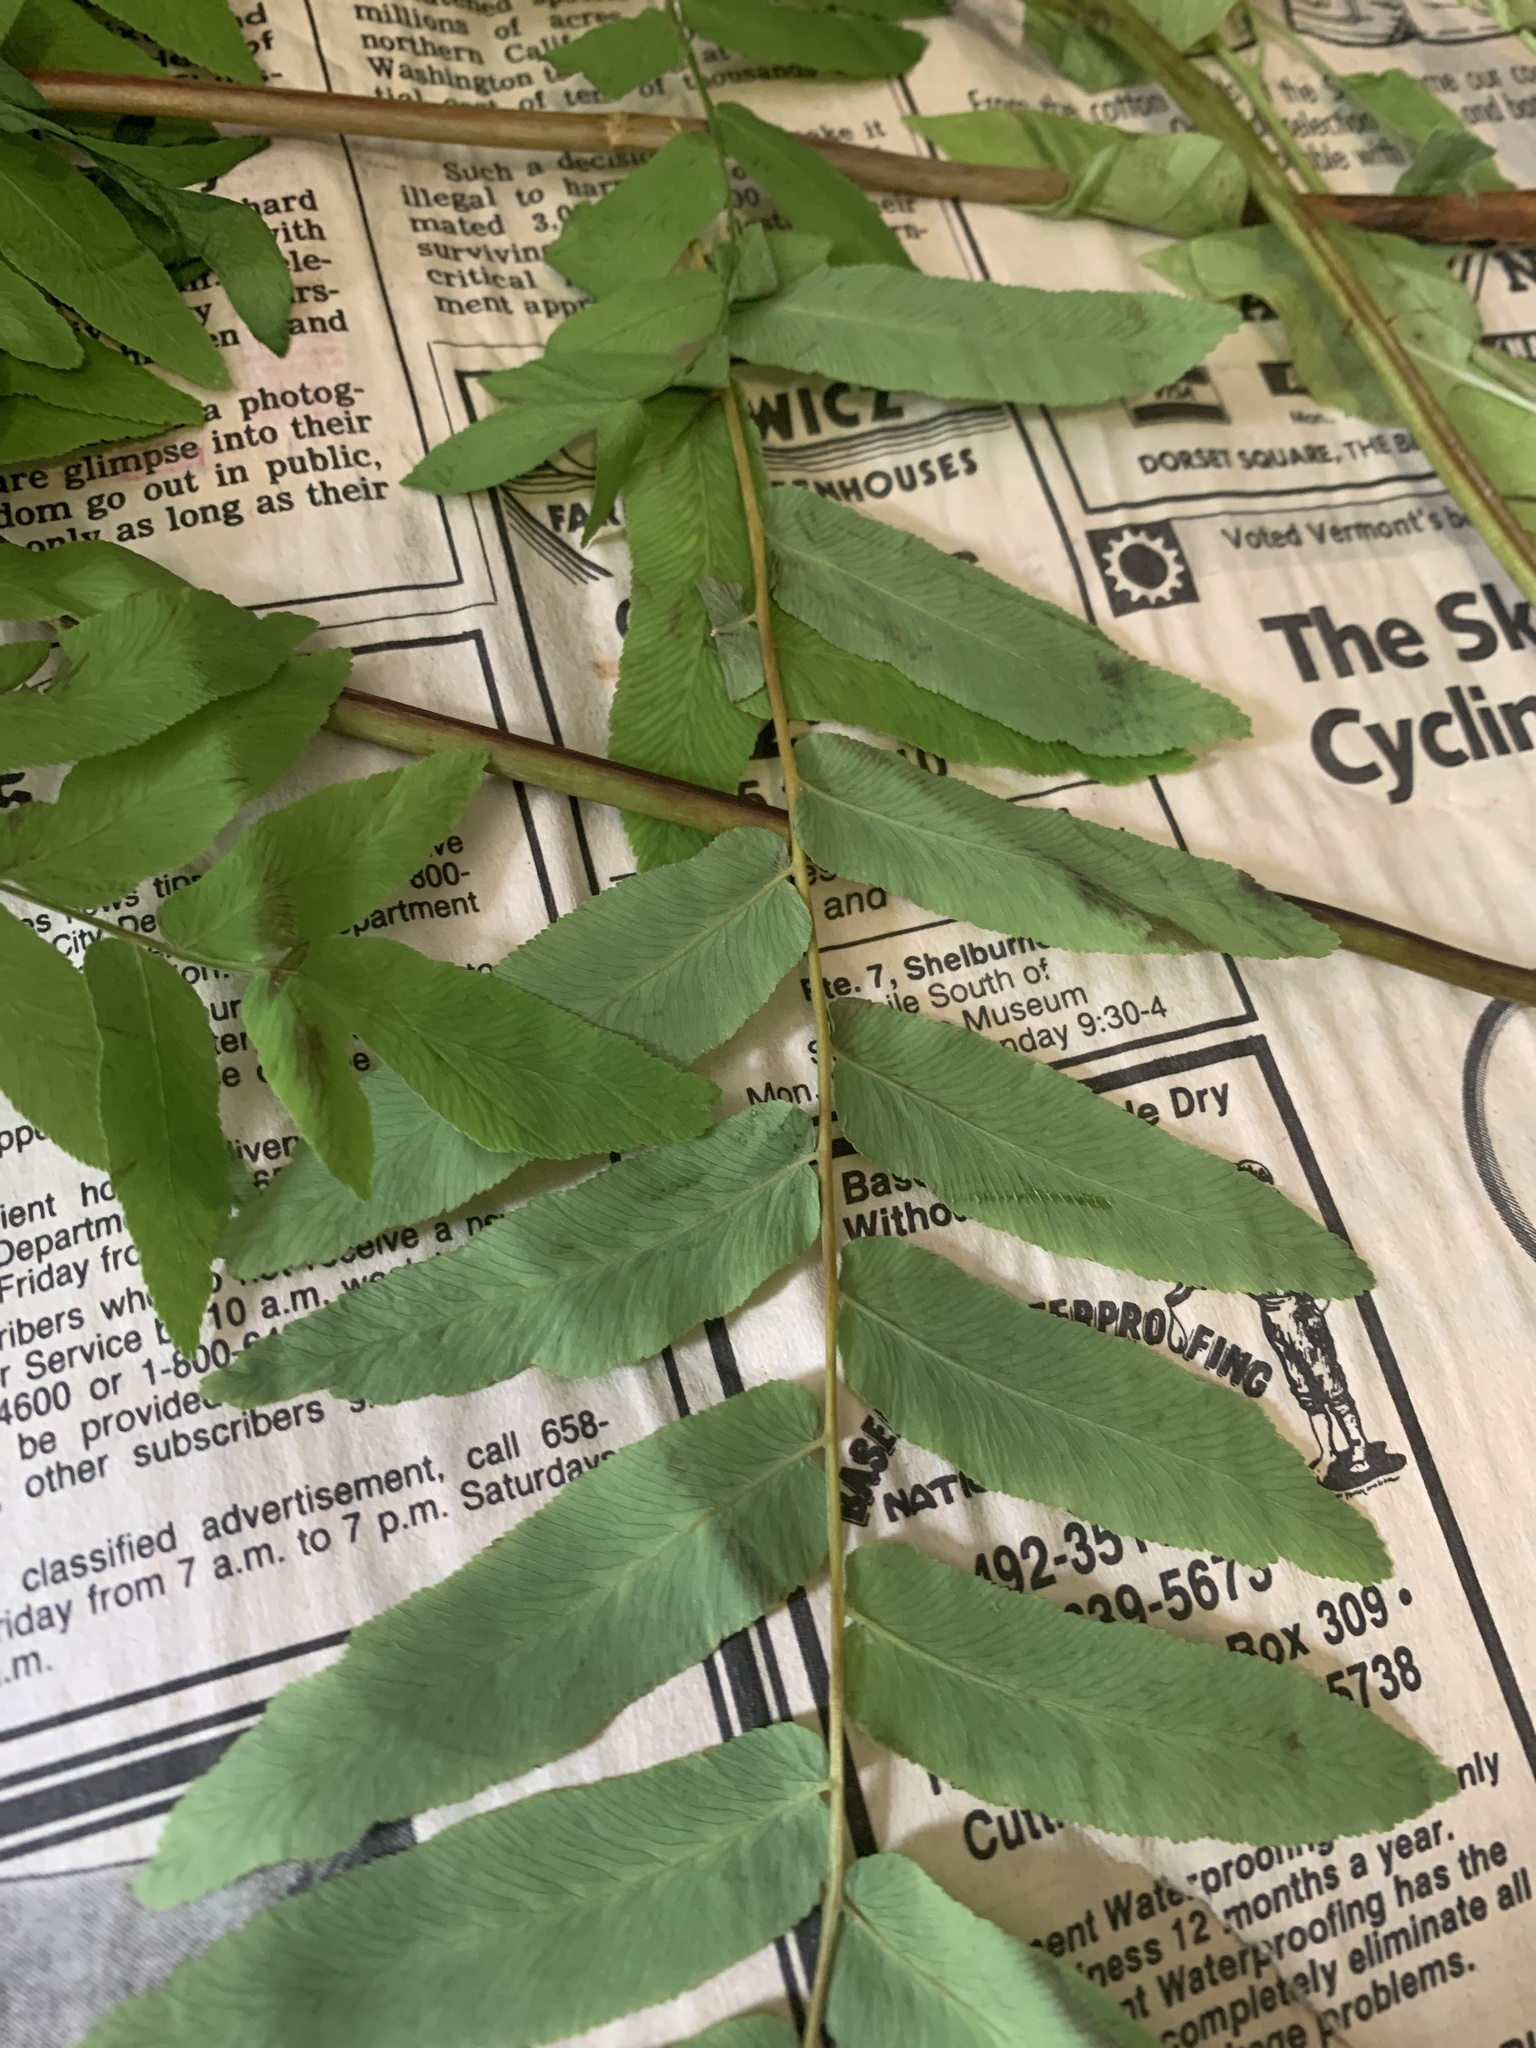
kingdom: Plantae
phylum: Tracheophyta
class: Polypodiopsida
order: Osmundales
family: Osmundaceae
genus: Osmunda
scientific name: Osmunda spectabilis
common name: American royal fern
